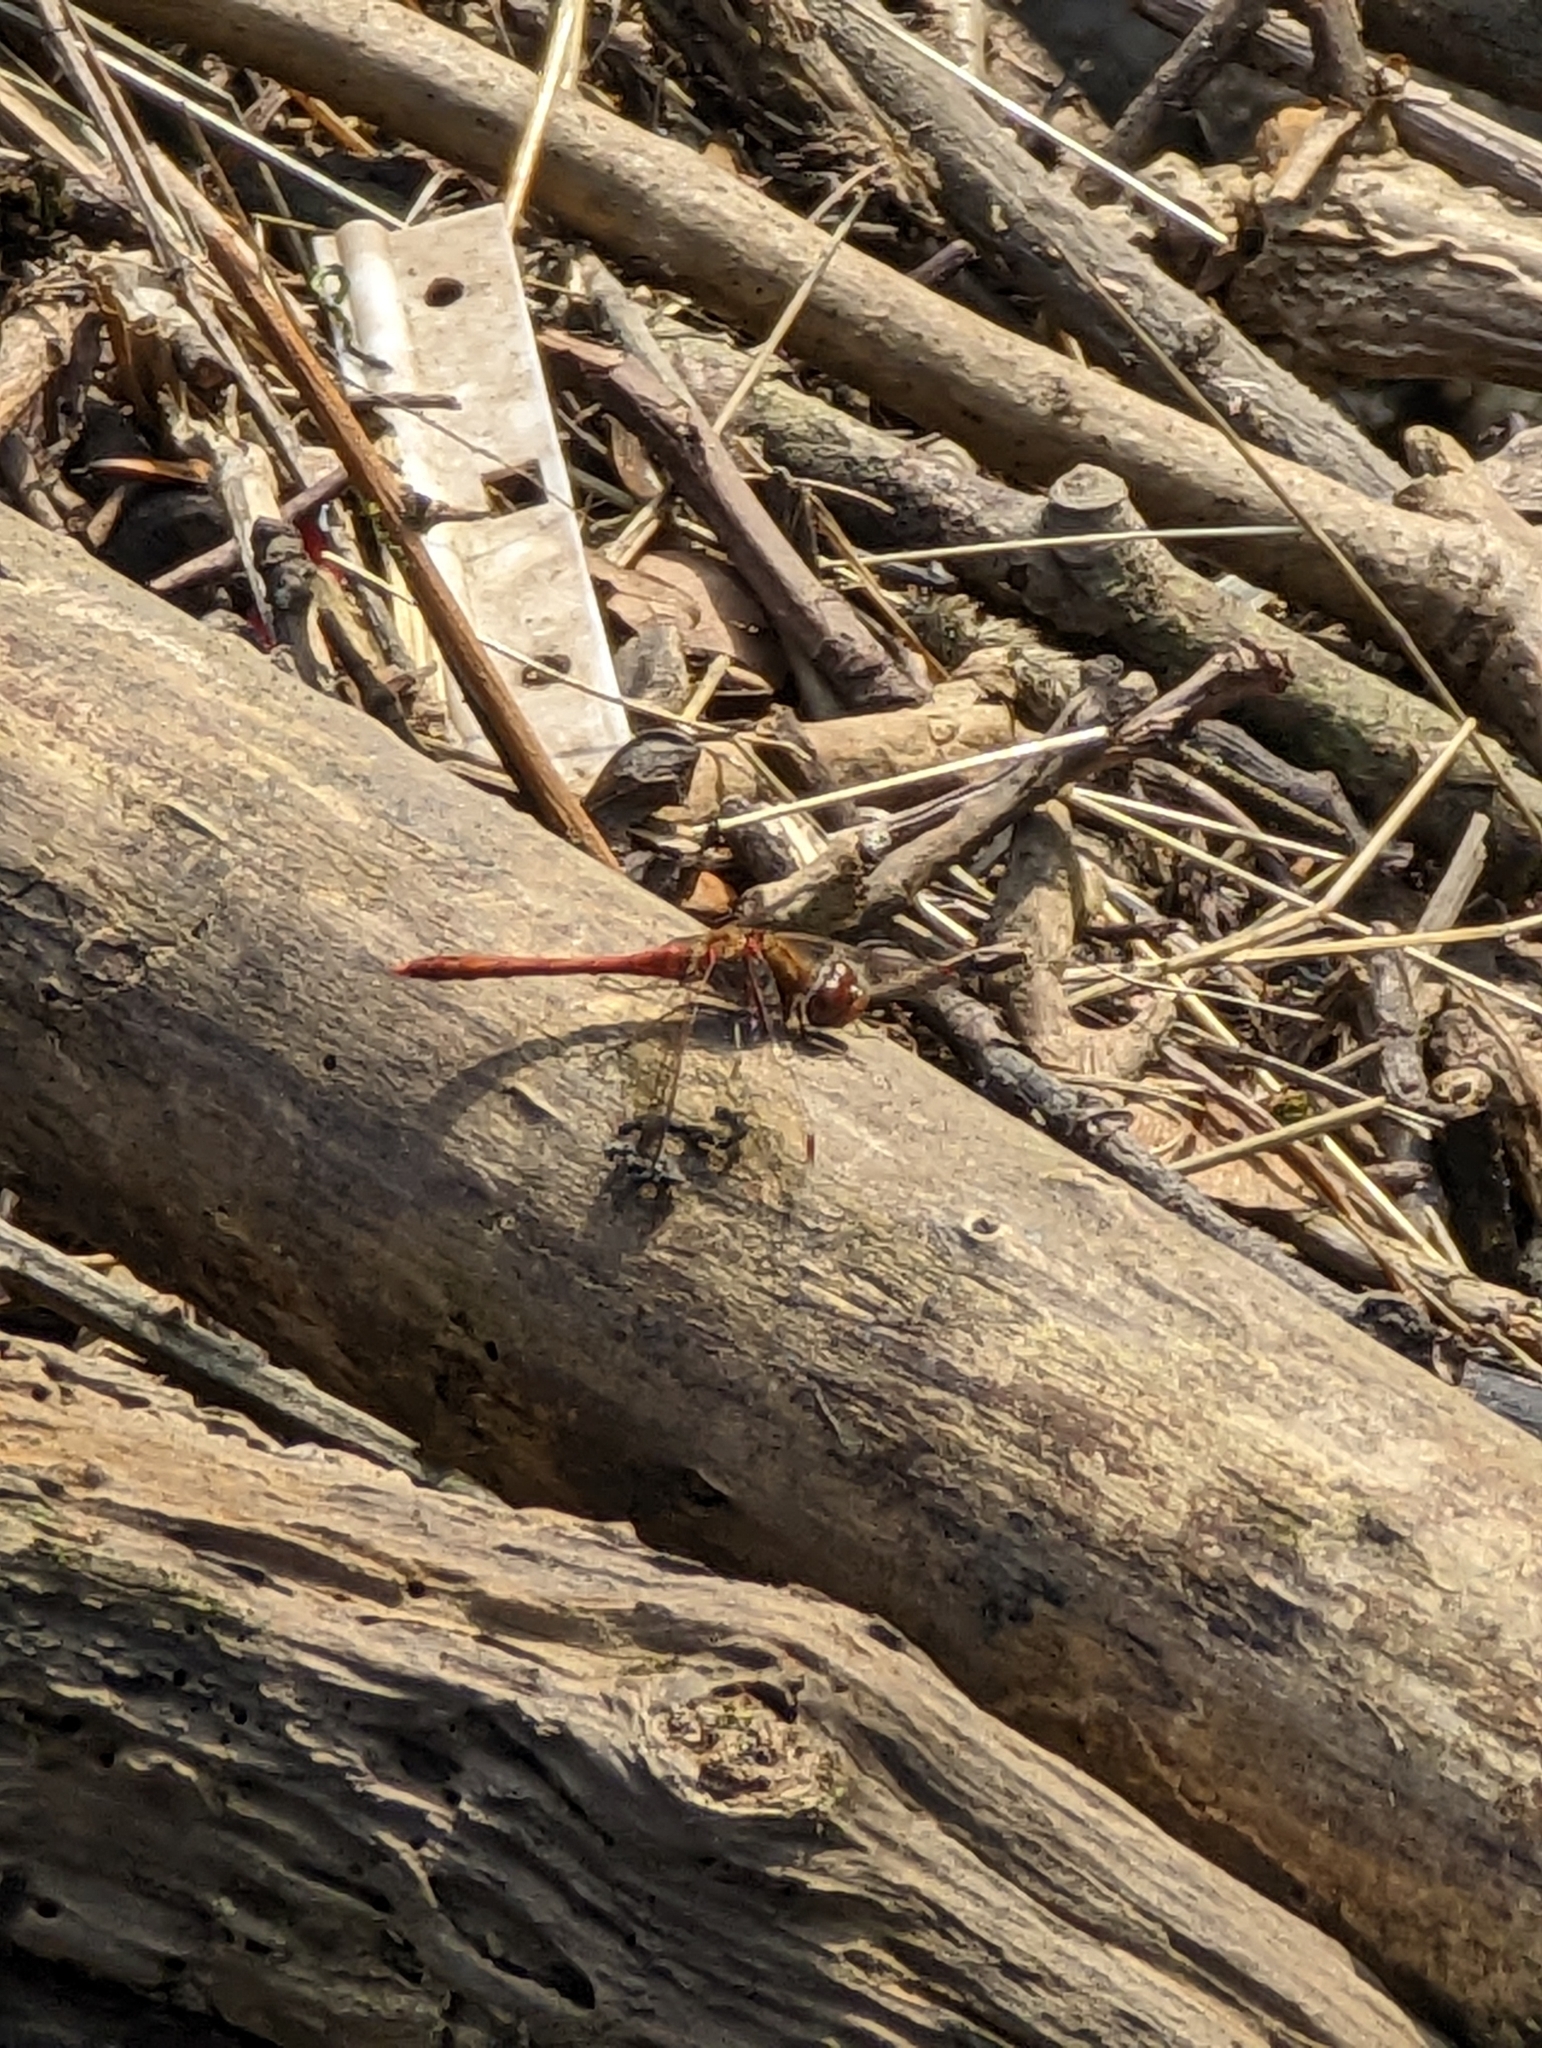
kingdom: Animalia
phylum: Arthropoda
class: Insecta
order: Odonata
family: Libellulidae
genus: Sympetrum
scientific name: Sympetrum striolatum
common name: Common darter
